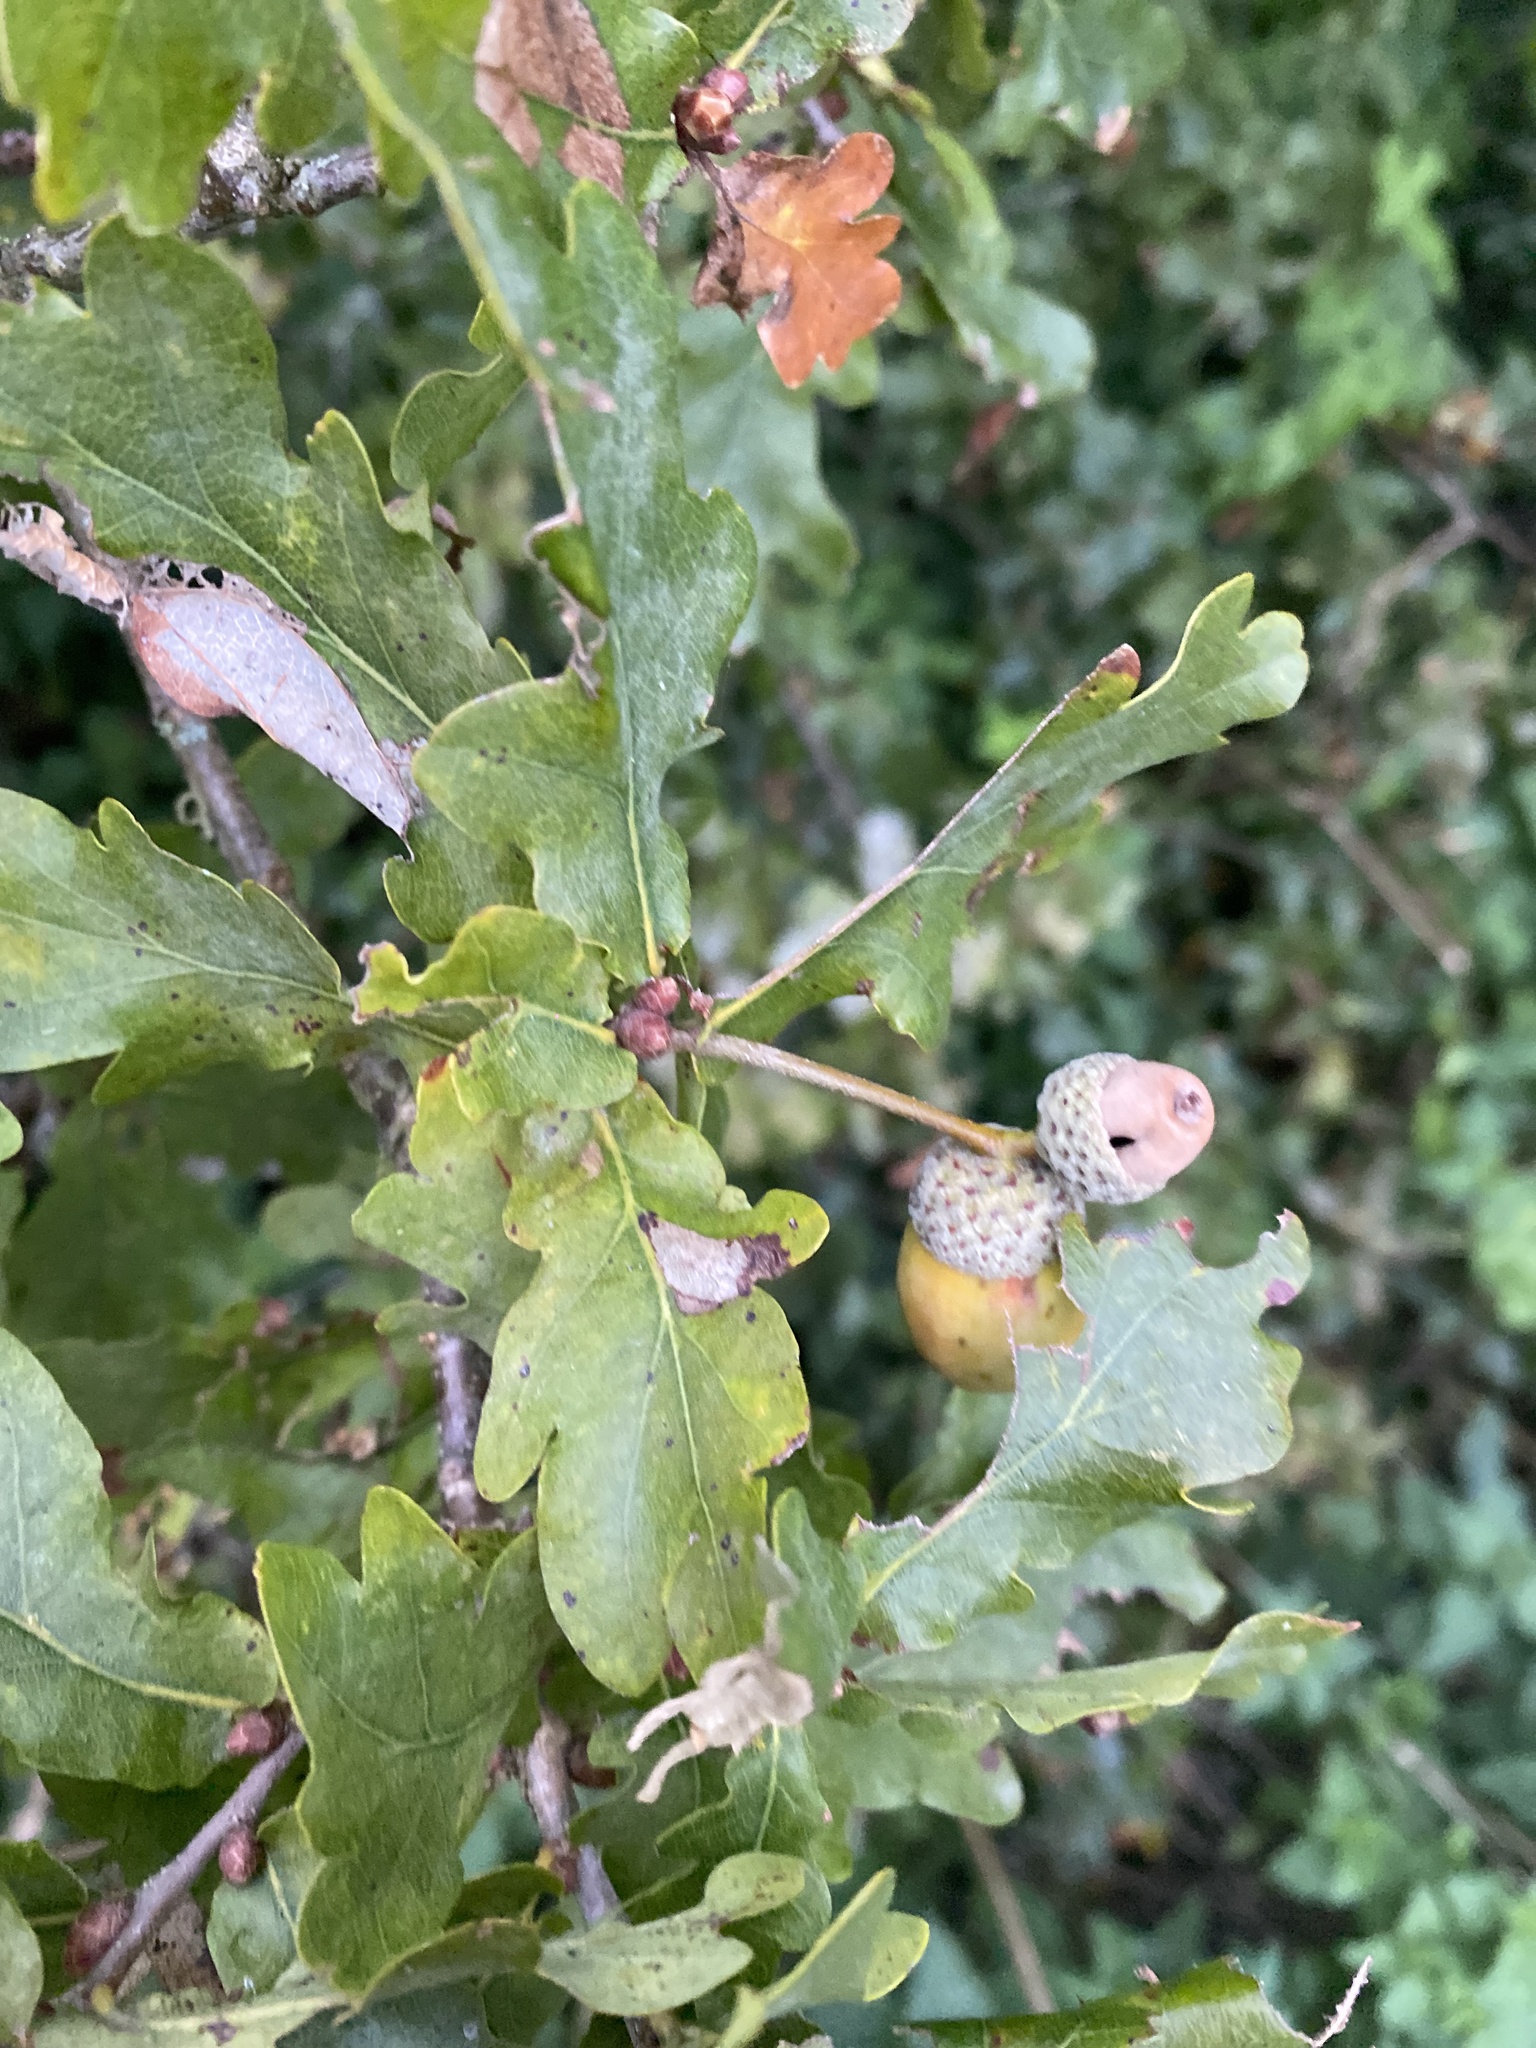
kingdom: Plantae
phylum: Tracheophyta
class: Magnoliopsida
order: Fagales
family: Fagaceae
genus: Quercus
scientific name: Quercus robur
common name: Pedunculate oak
